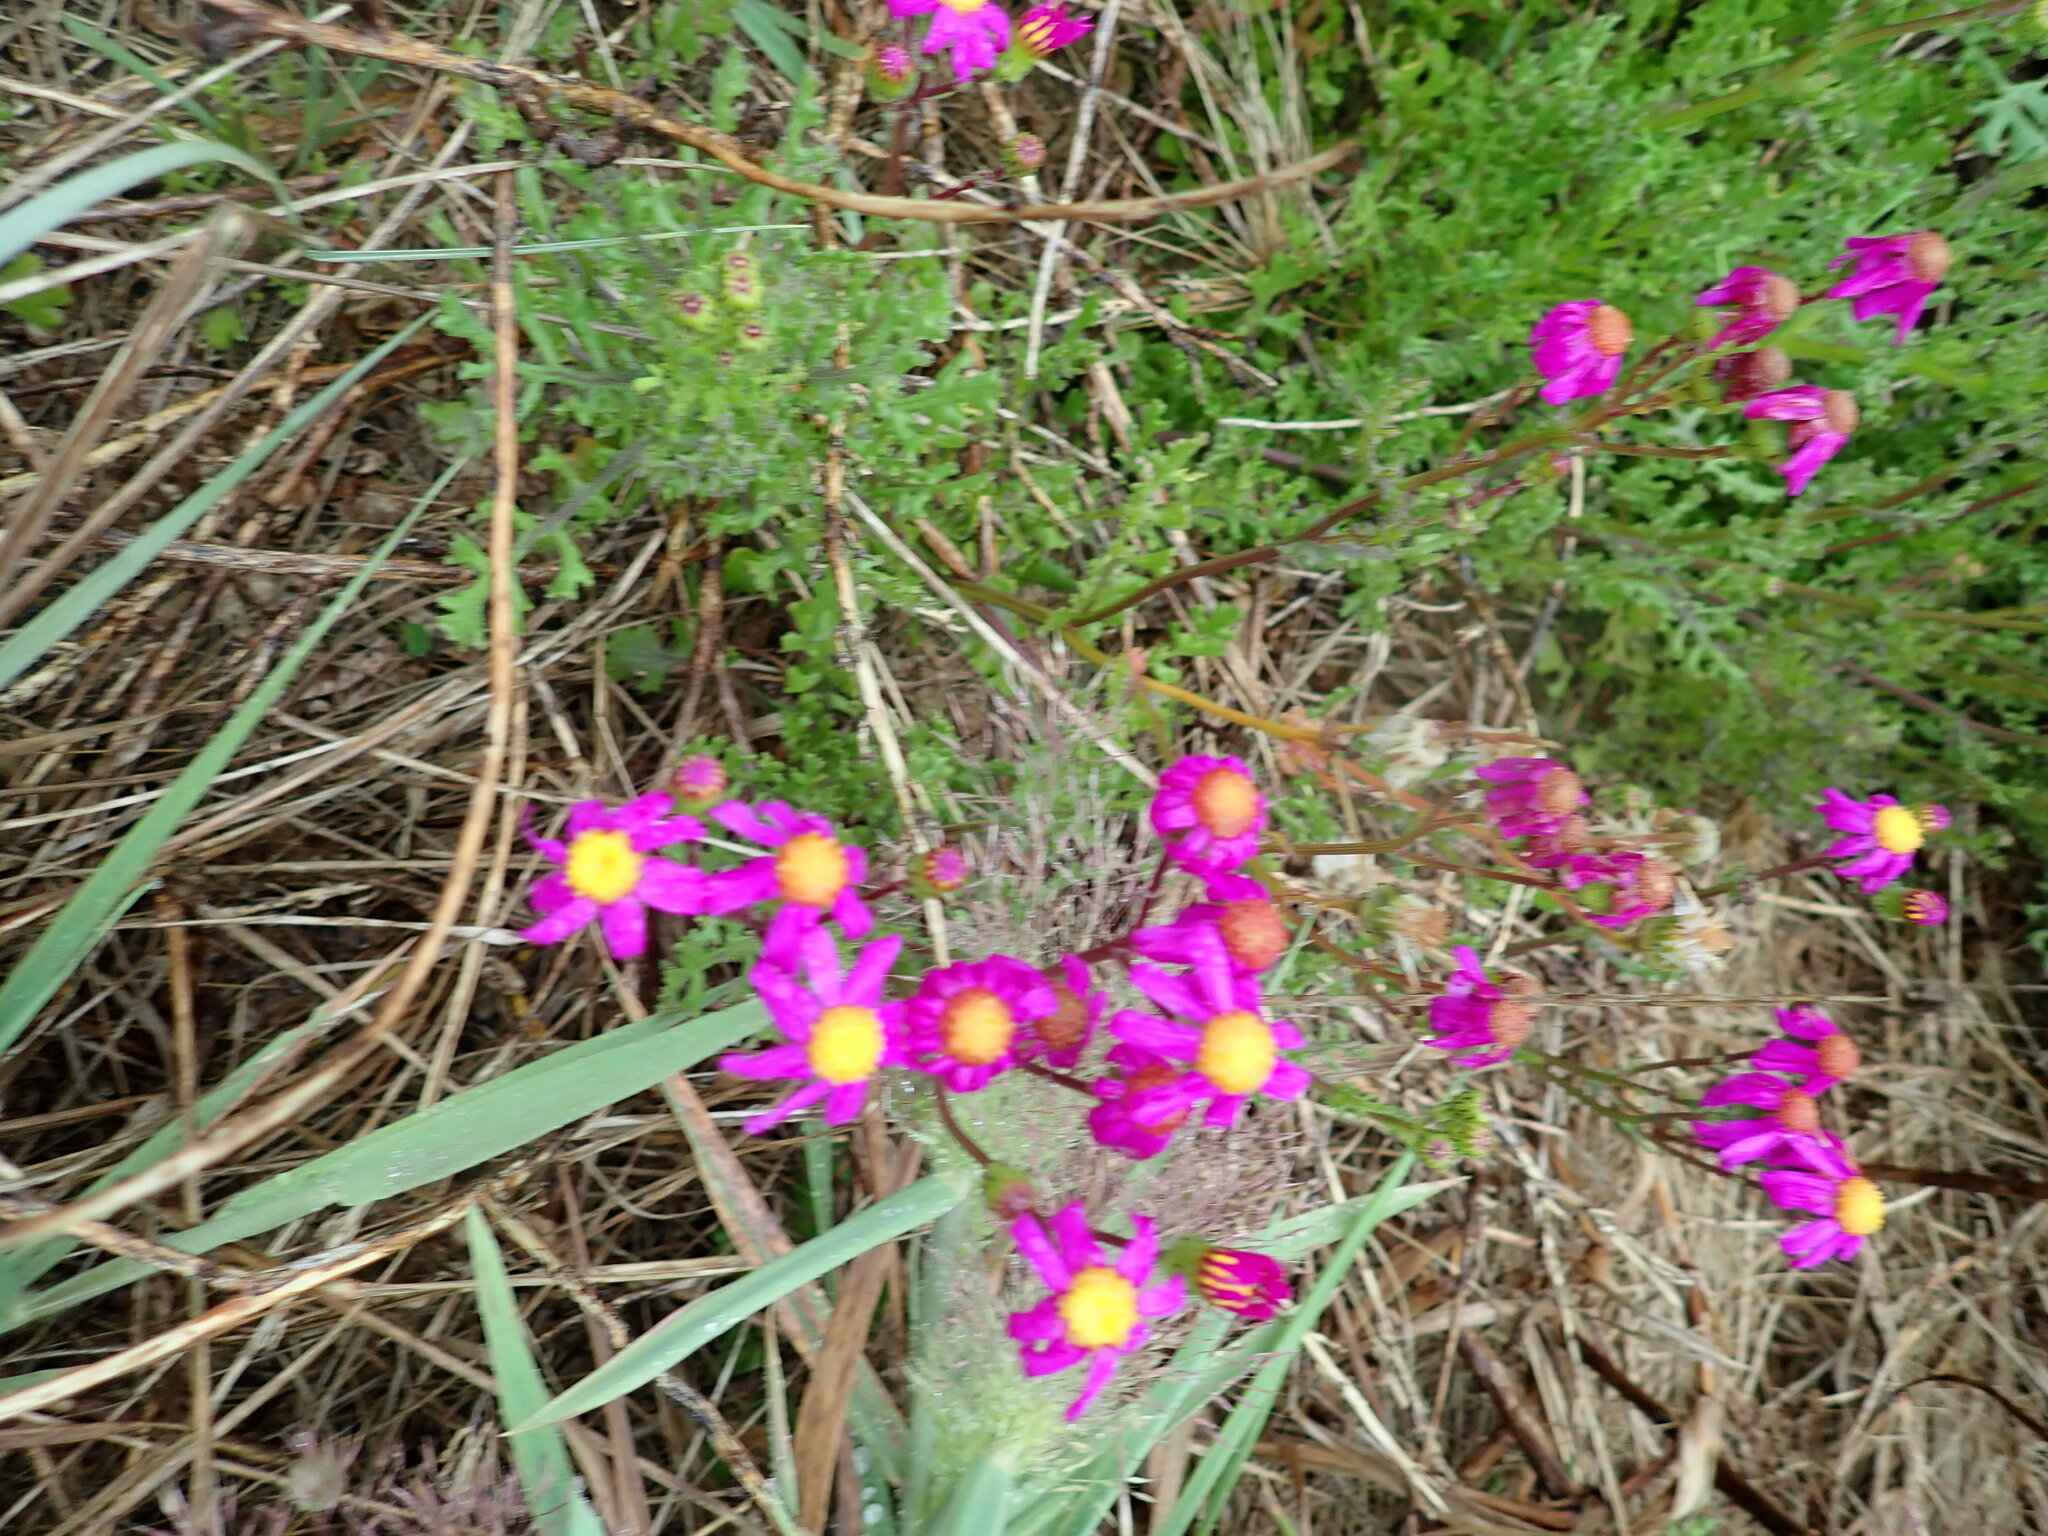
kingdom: Plantae
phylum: Tracheophyta
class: Magnoliopsida
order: Asterales
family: Asteraceae
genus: Senecio
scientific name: Senecio elegans
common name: Purple groundsel
